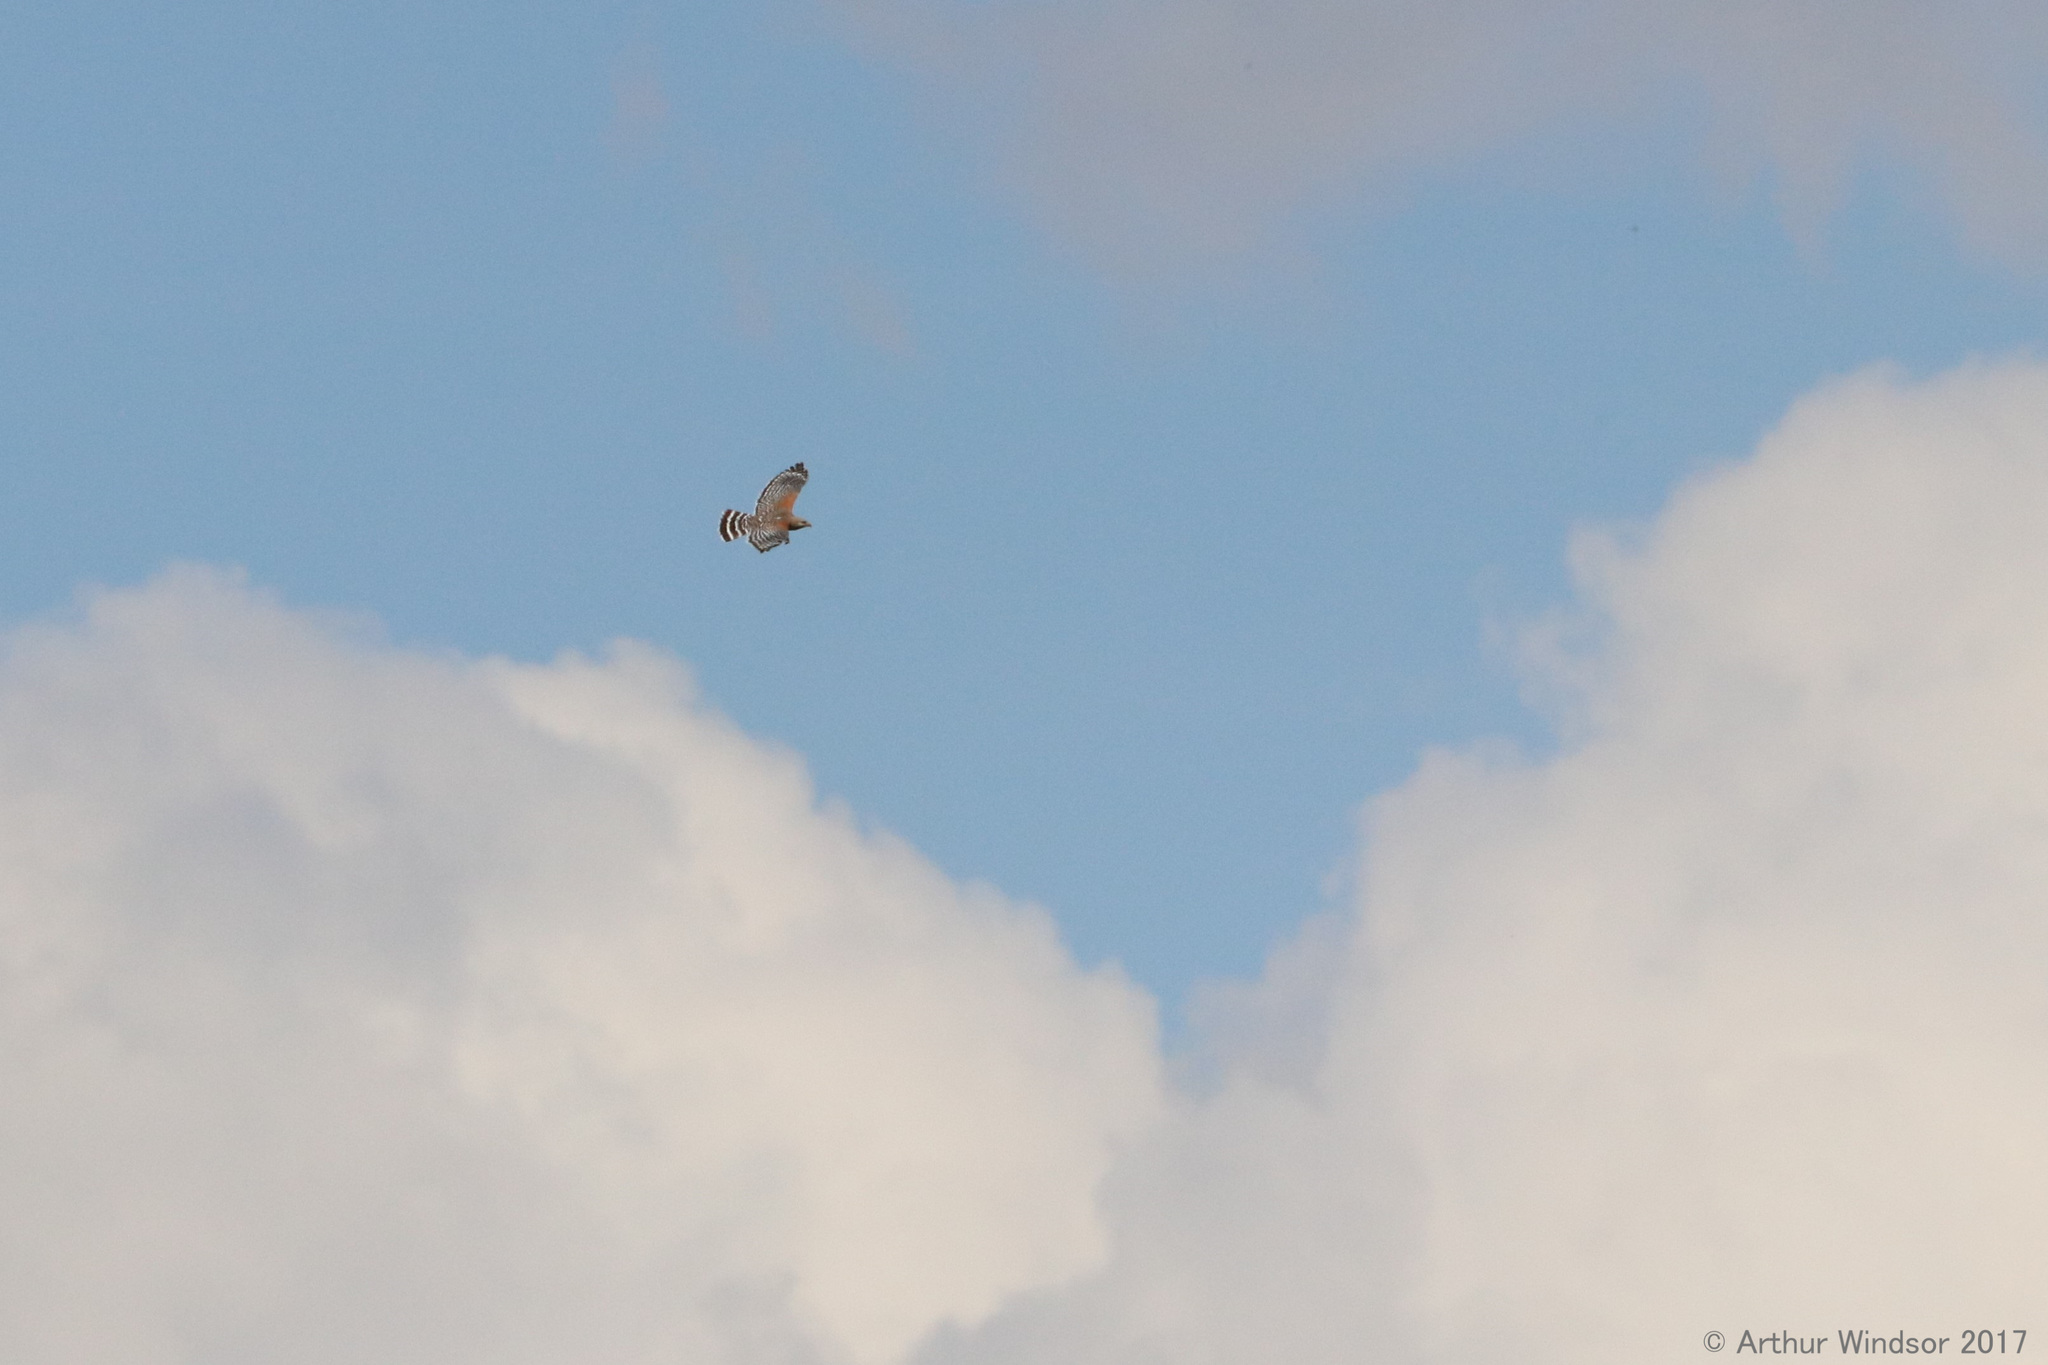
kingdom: Animalia
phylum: Chordata
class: Aves
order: Accipitriformes
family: Accipitridae
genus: Buteo
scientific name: Buteo lineatus
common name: Red-shouldered hawk
